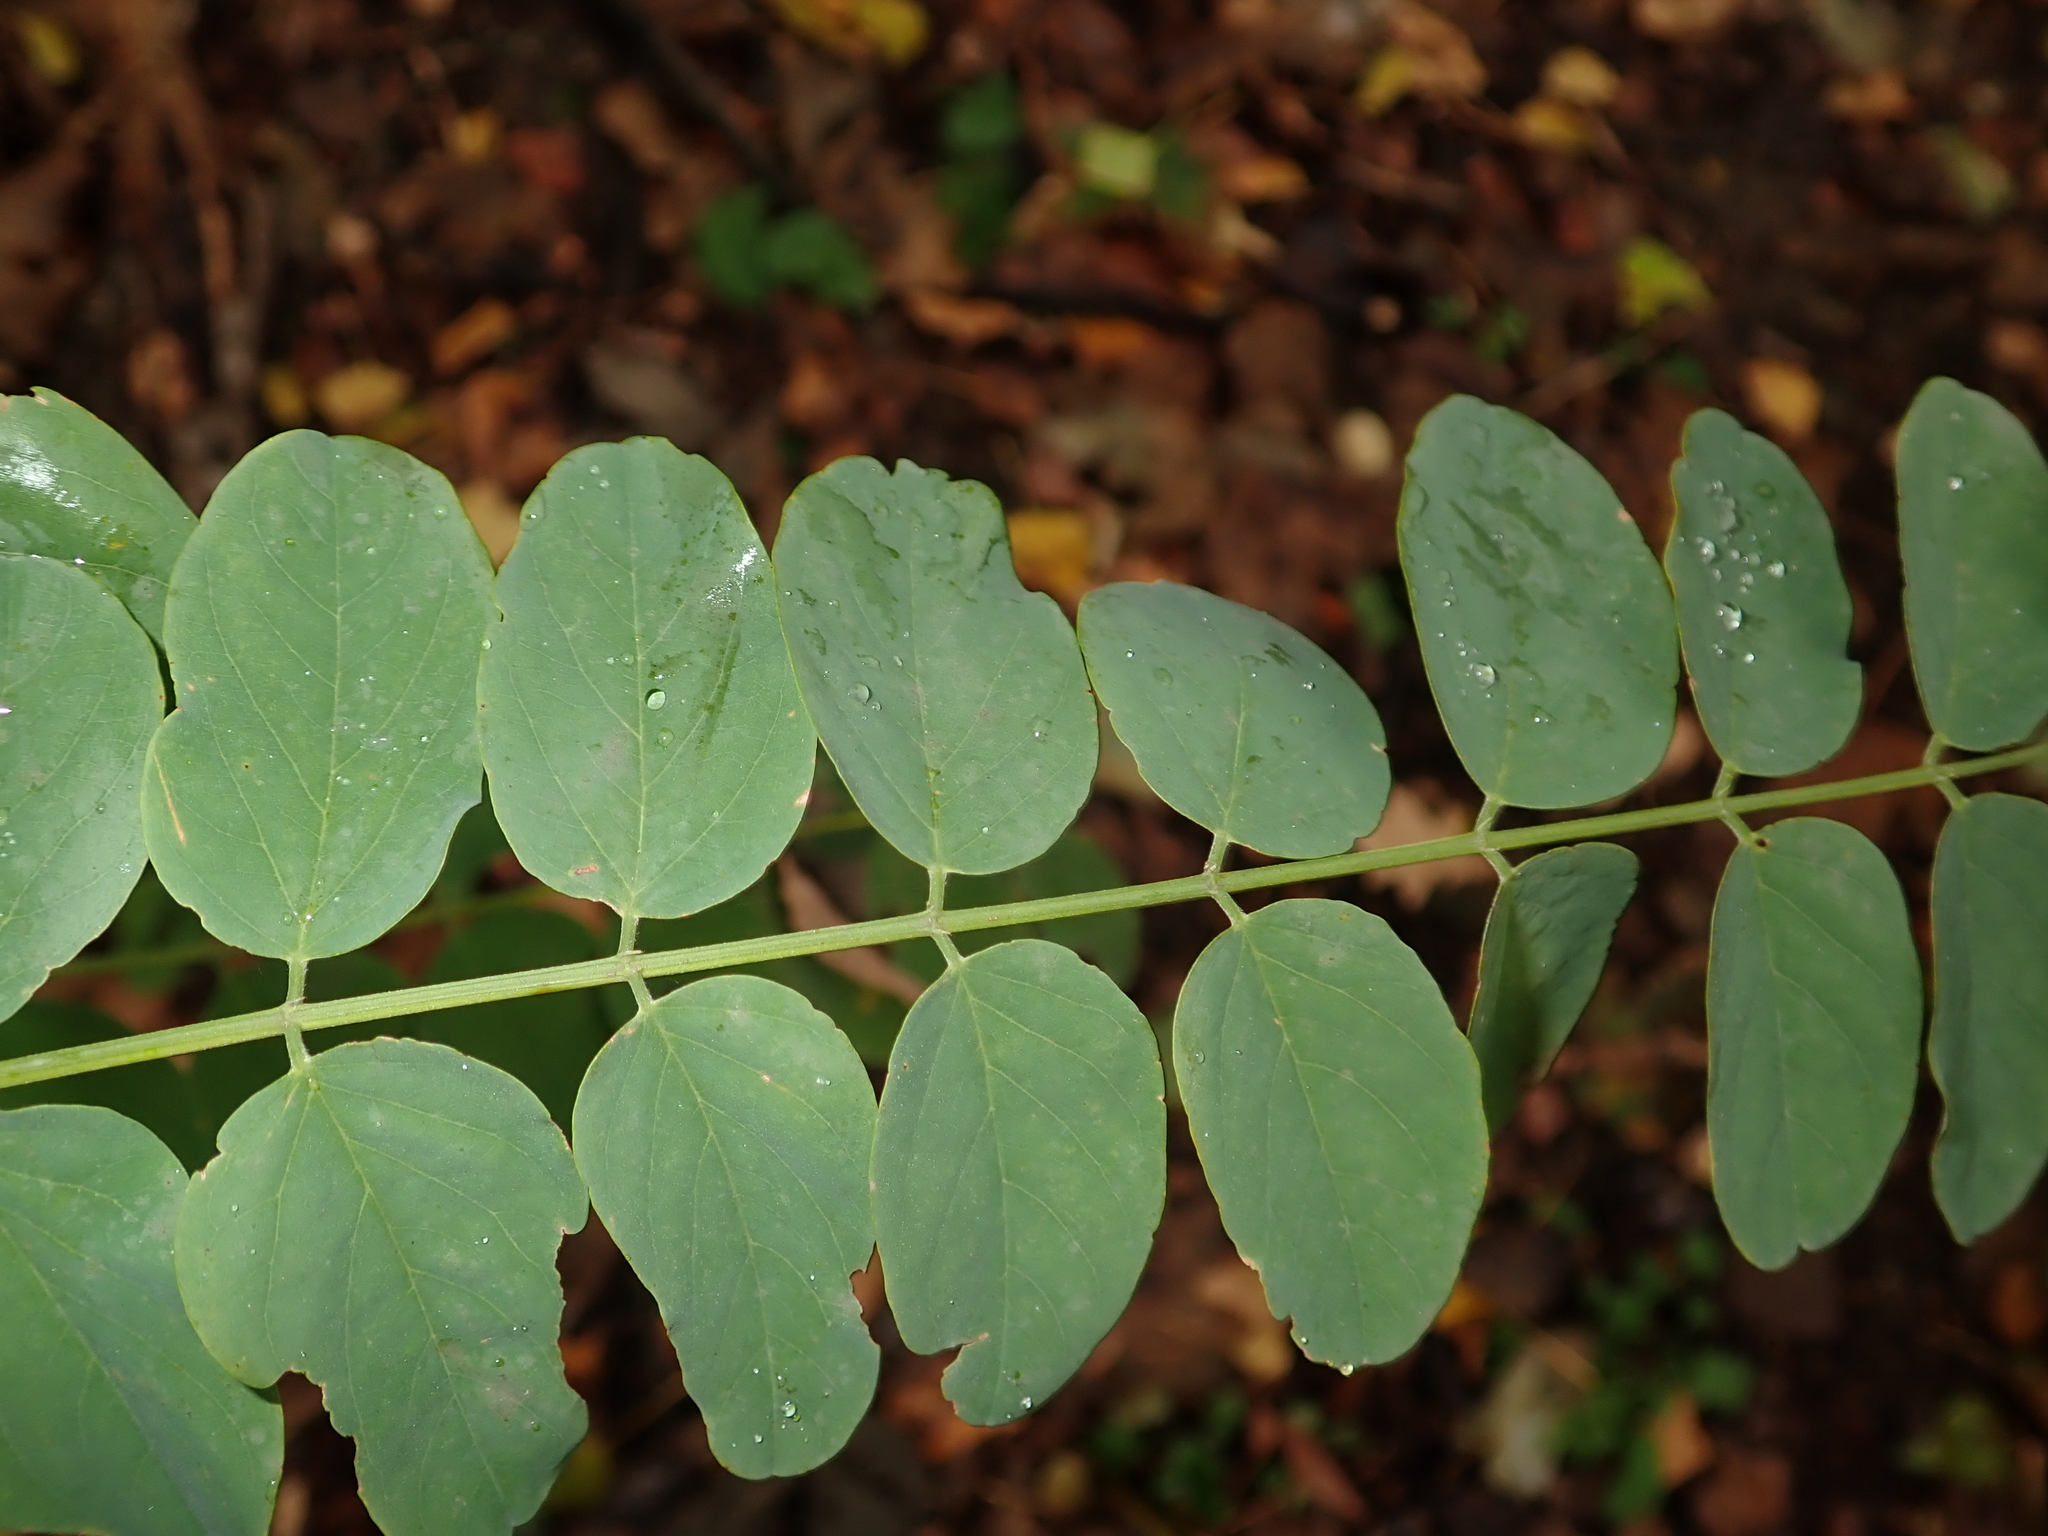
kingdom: Plantae
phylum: Tracheophyta
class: Magnoliopsida
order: Fabales
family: Fabaceae
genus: Robinia
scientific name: Robinia pseudoacacia
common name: Black locust
